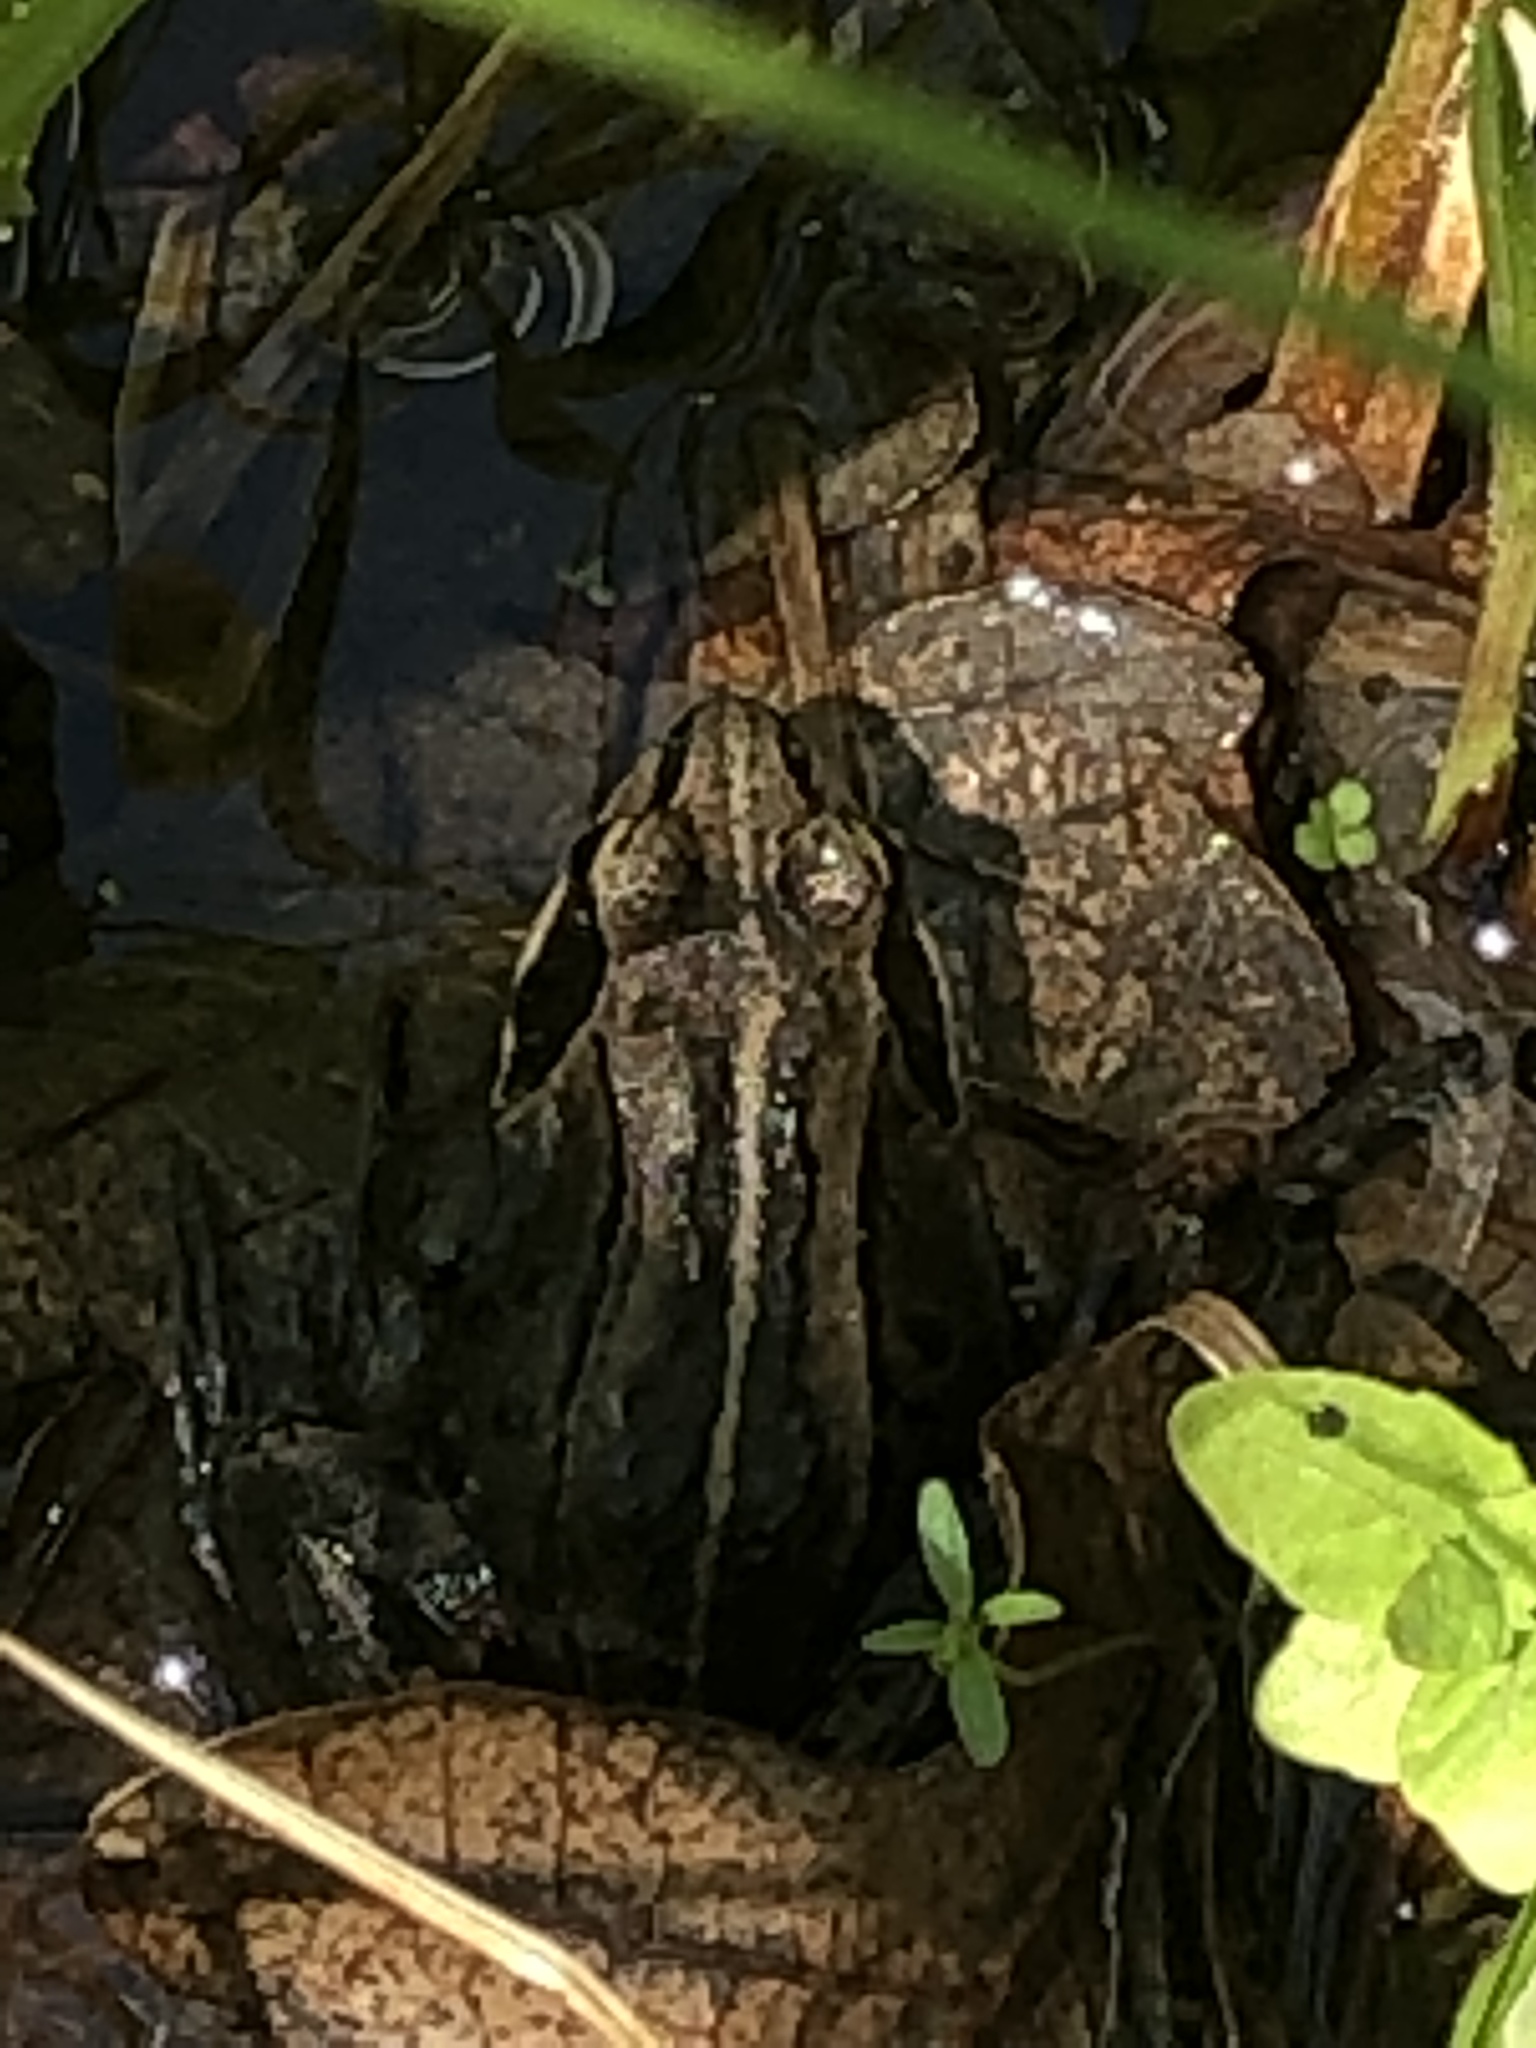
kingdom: Animalia
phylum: Chordata
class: Amphibia
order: Anura
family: Ranidae
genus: Lithobates
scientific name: Lithobates sylvaticus
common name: Wood frog
